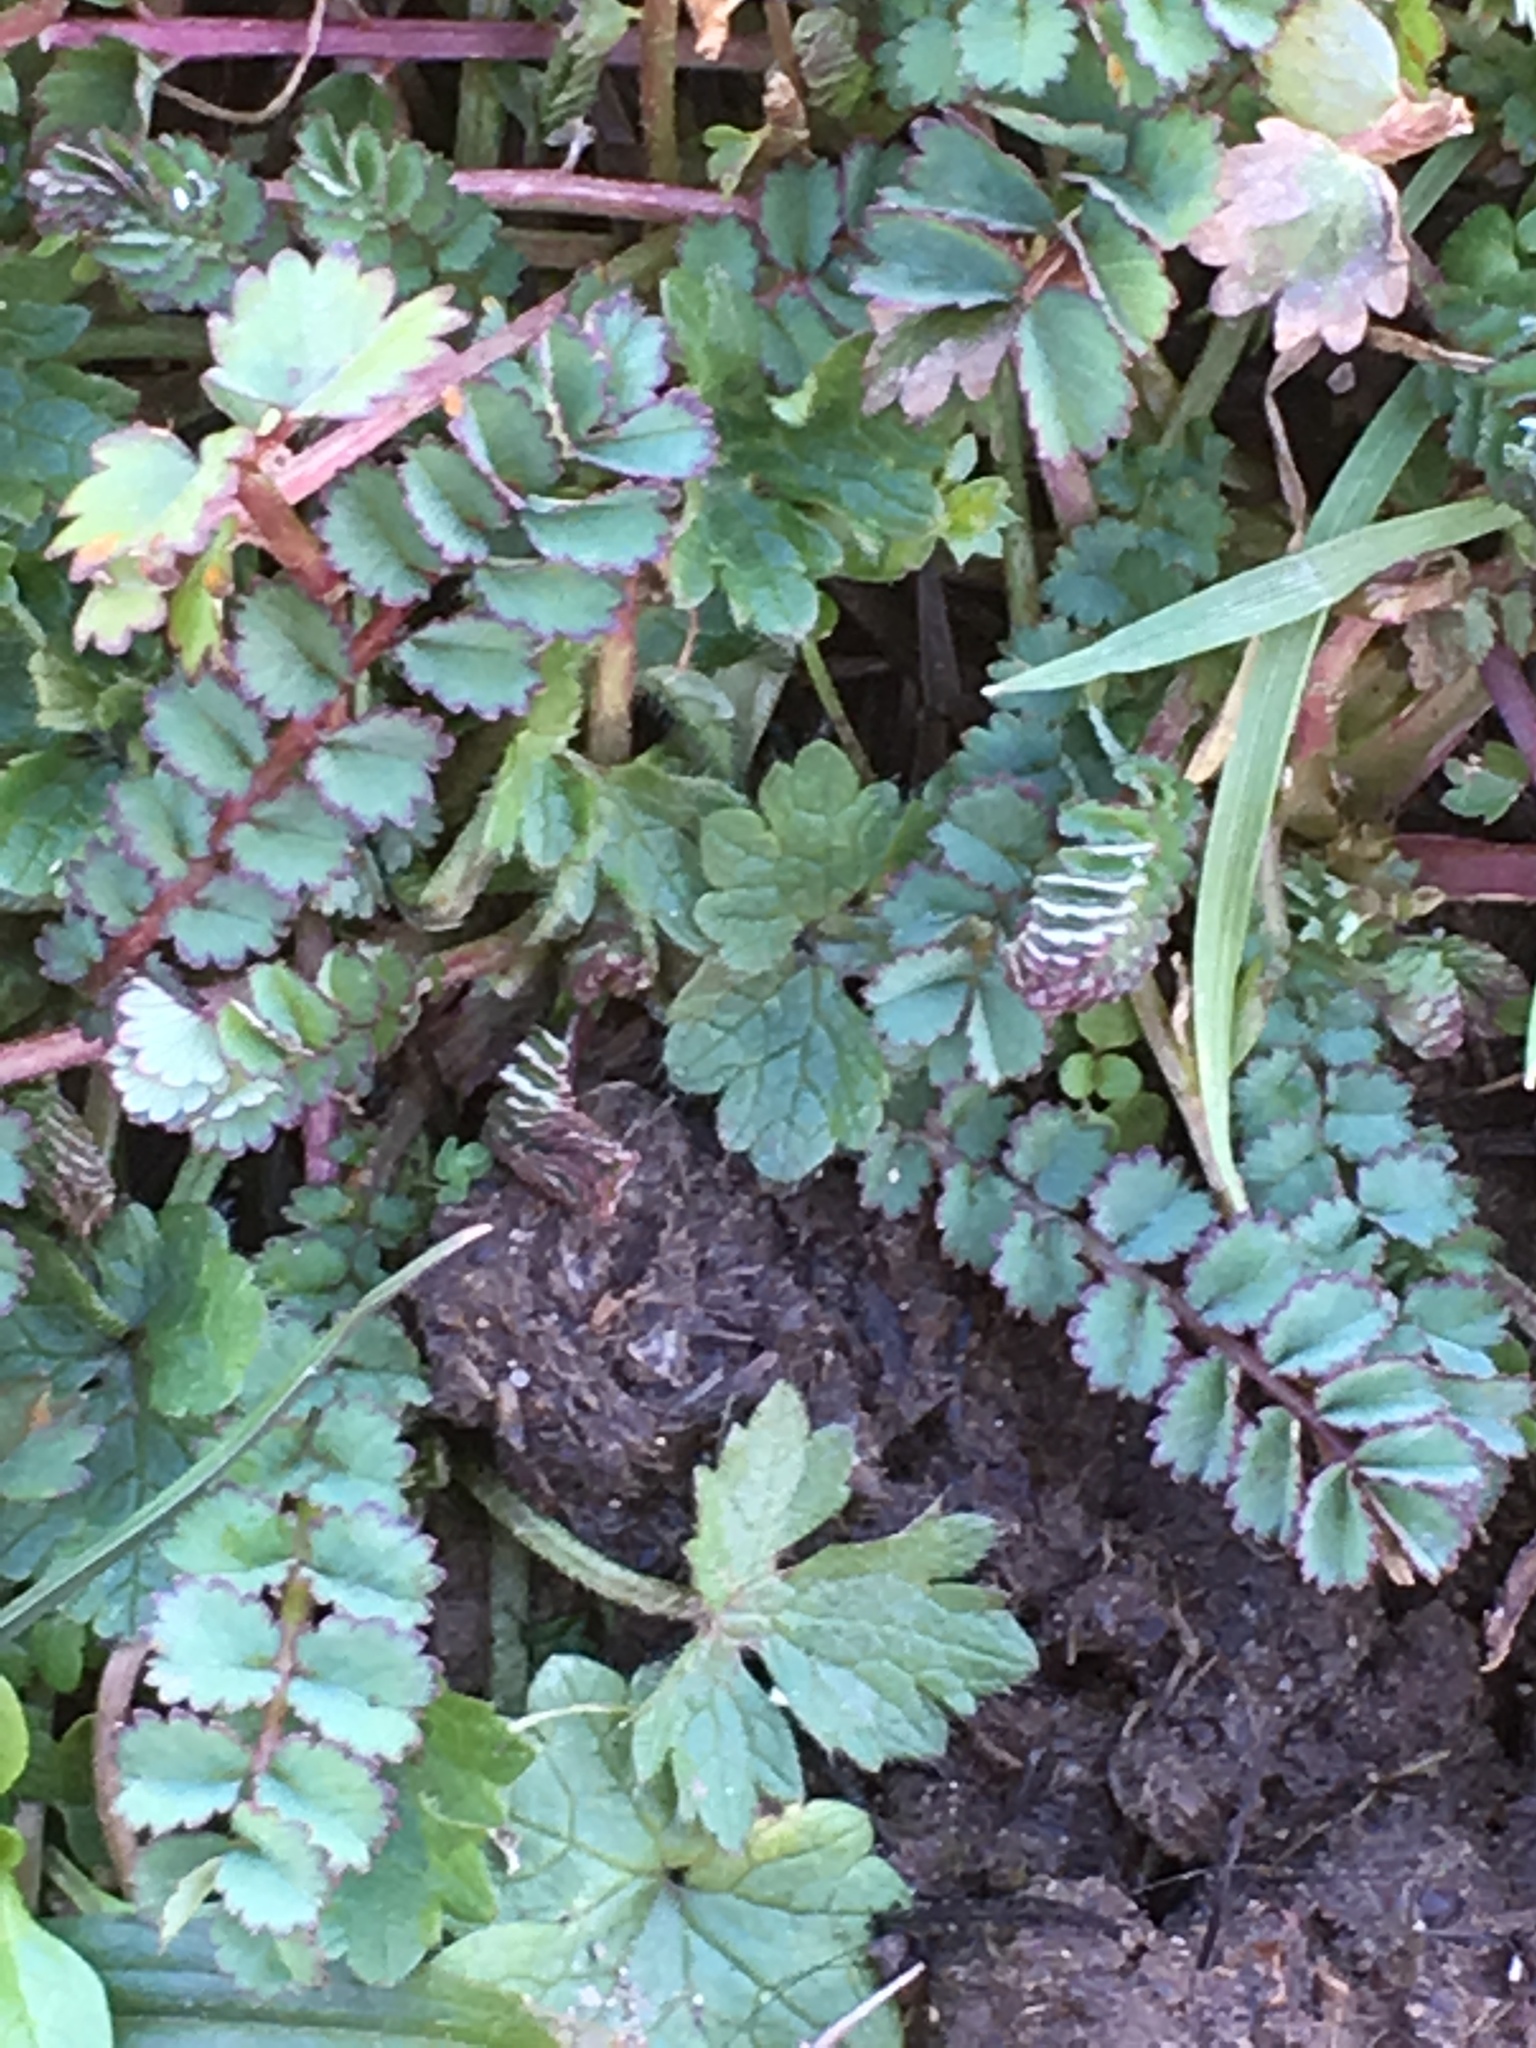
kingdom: Plantae
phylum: Tracheophyta
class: Magnoliopsida
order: Rosales
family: Rosaceae
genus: Poterium
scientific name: Poterium sanguisorba
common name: Salad burnet
